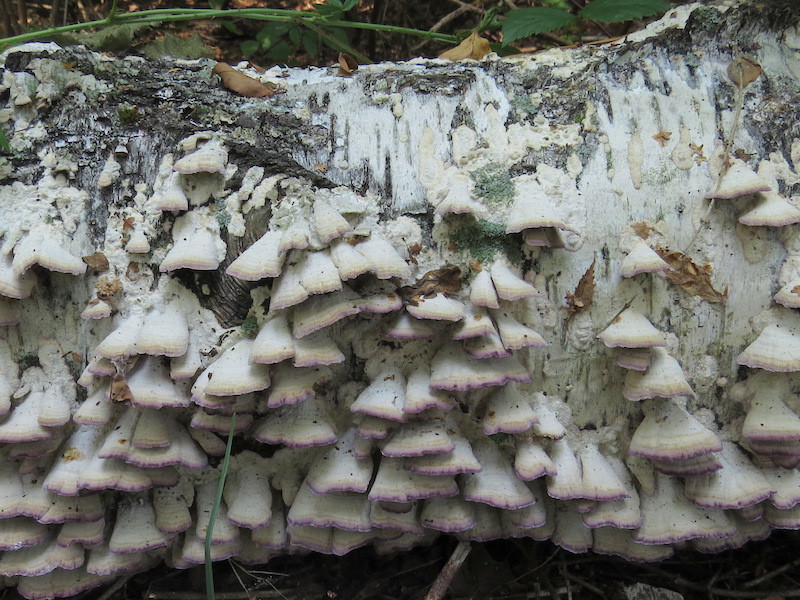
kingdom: Fungi
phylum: Basidiomycota
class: Agaricomycetes
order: Hymenochaetales
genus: Trichaptum
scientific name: Trichaptum biforme
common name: Violet-toothed polypore
